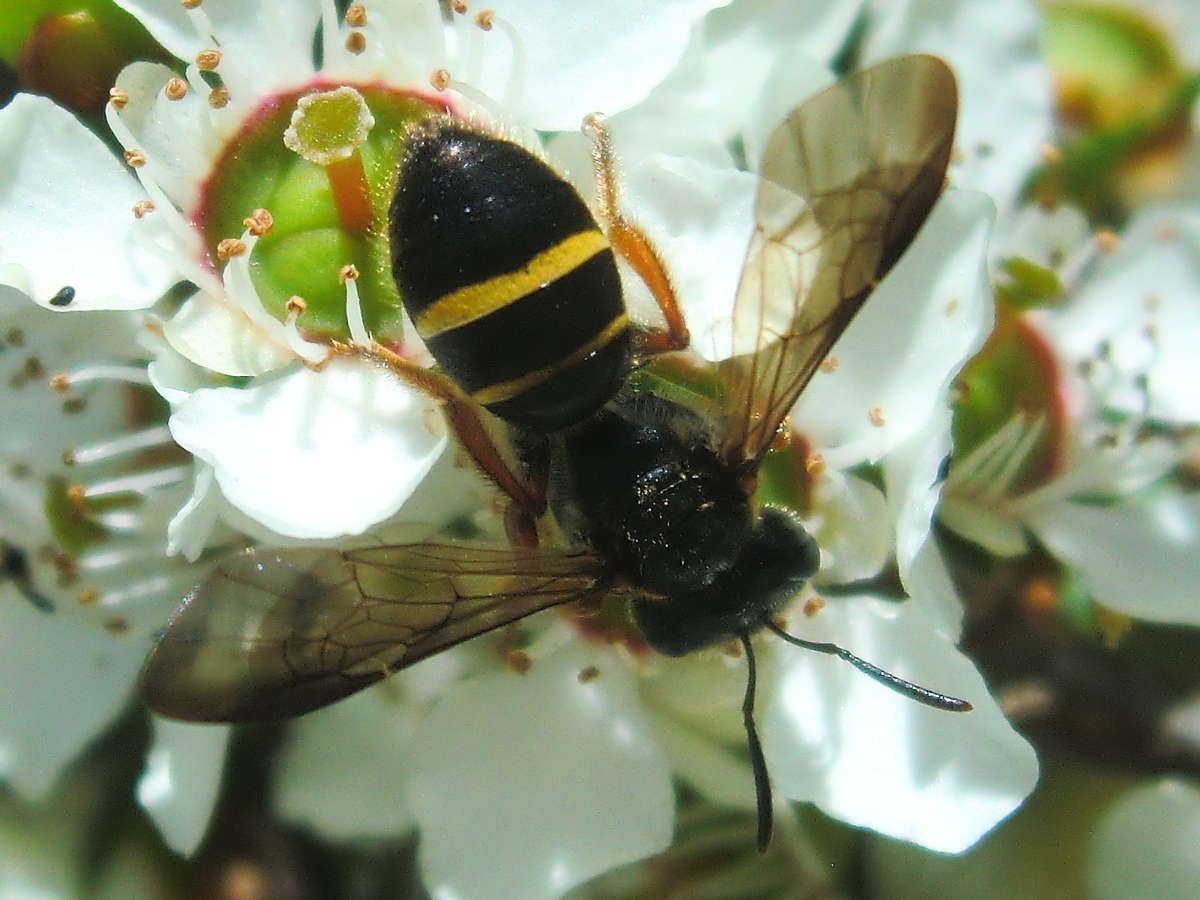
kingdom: Animalia
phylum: Arthropoda
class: Insecta
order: Hymenoptera
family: Halictidae
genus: Lasioglossum
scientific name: Lasioglossum tertium
